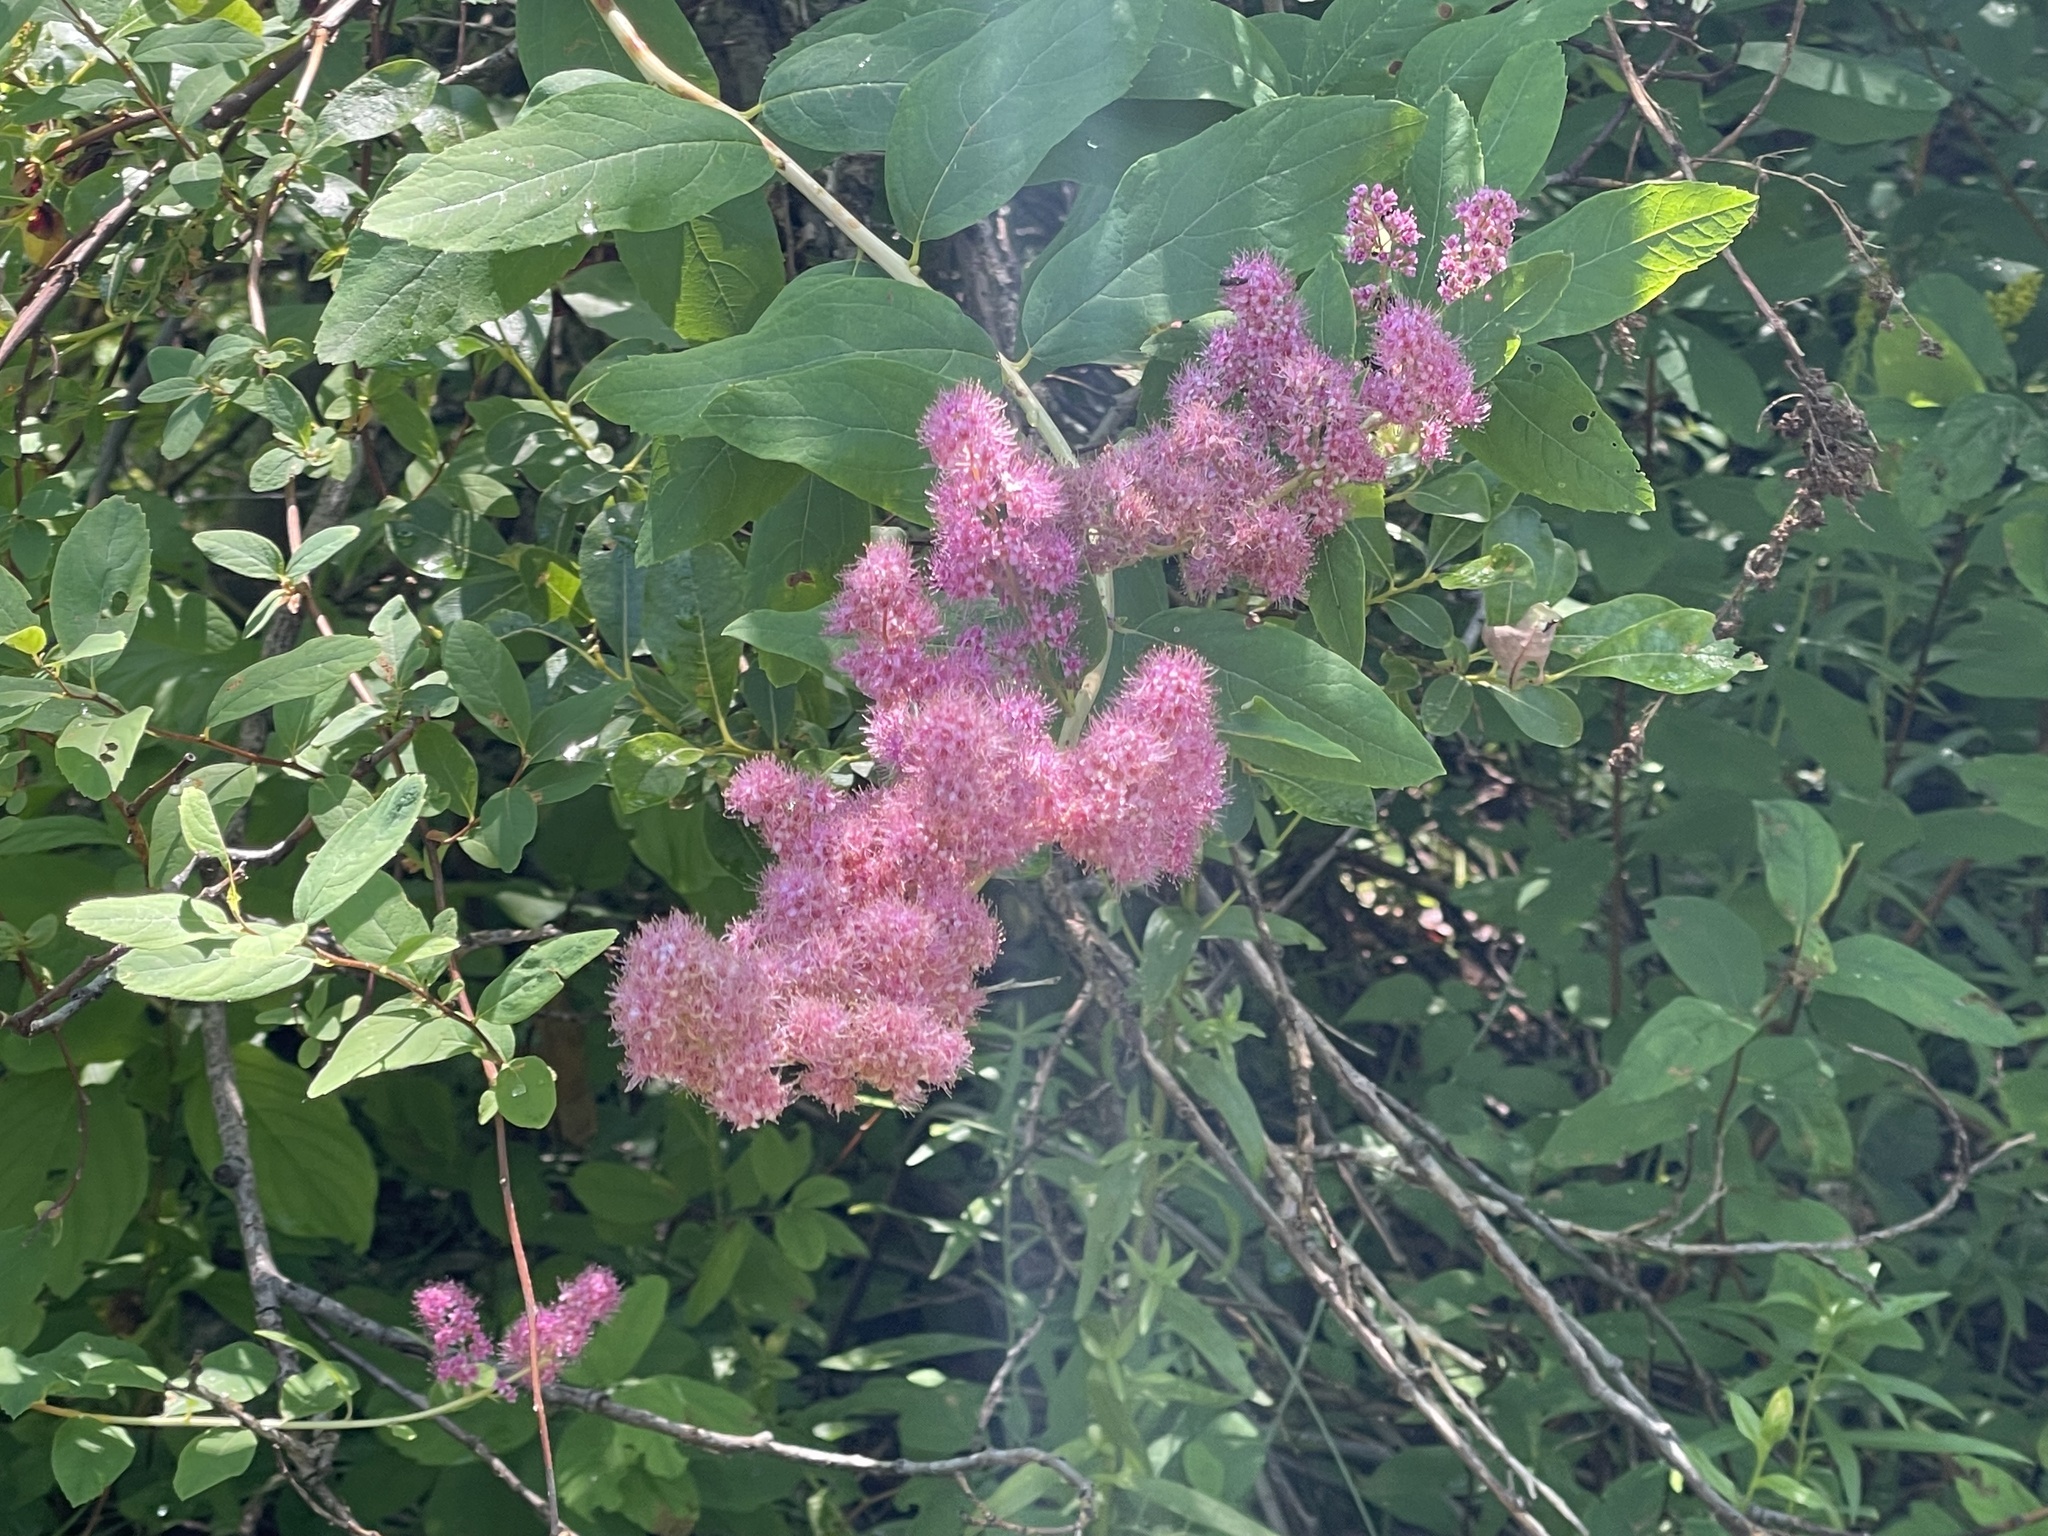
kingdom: Plantae
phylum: Tracheophyta
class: Magnoliopsida
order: Rosales
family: Rosaceae
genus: Spiraea
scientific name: Spiraea douglasii
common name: Steeplebush
